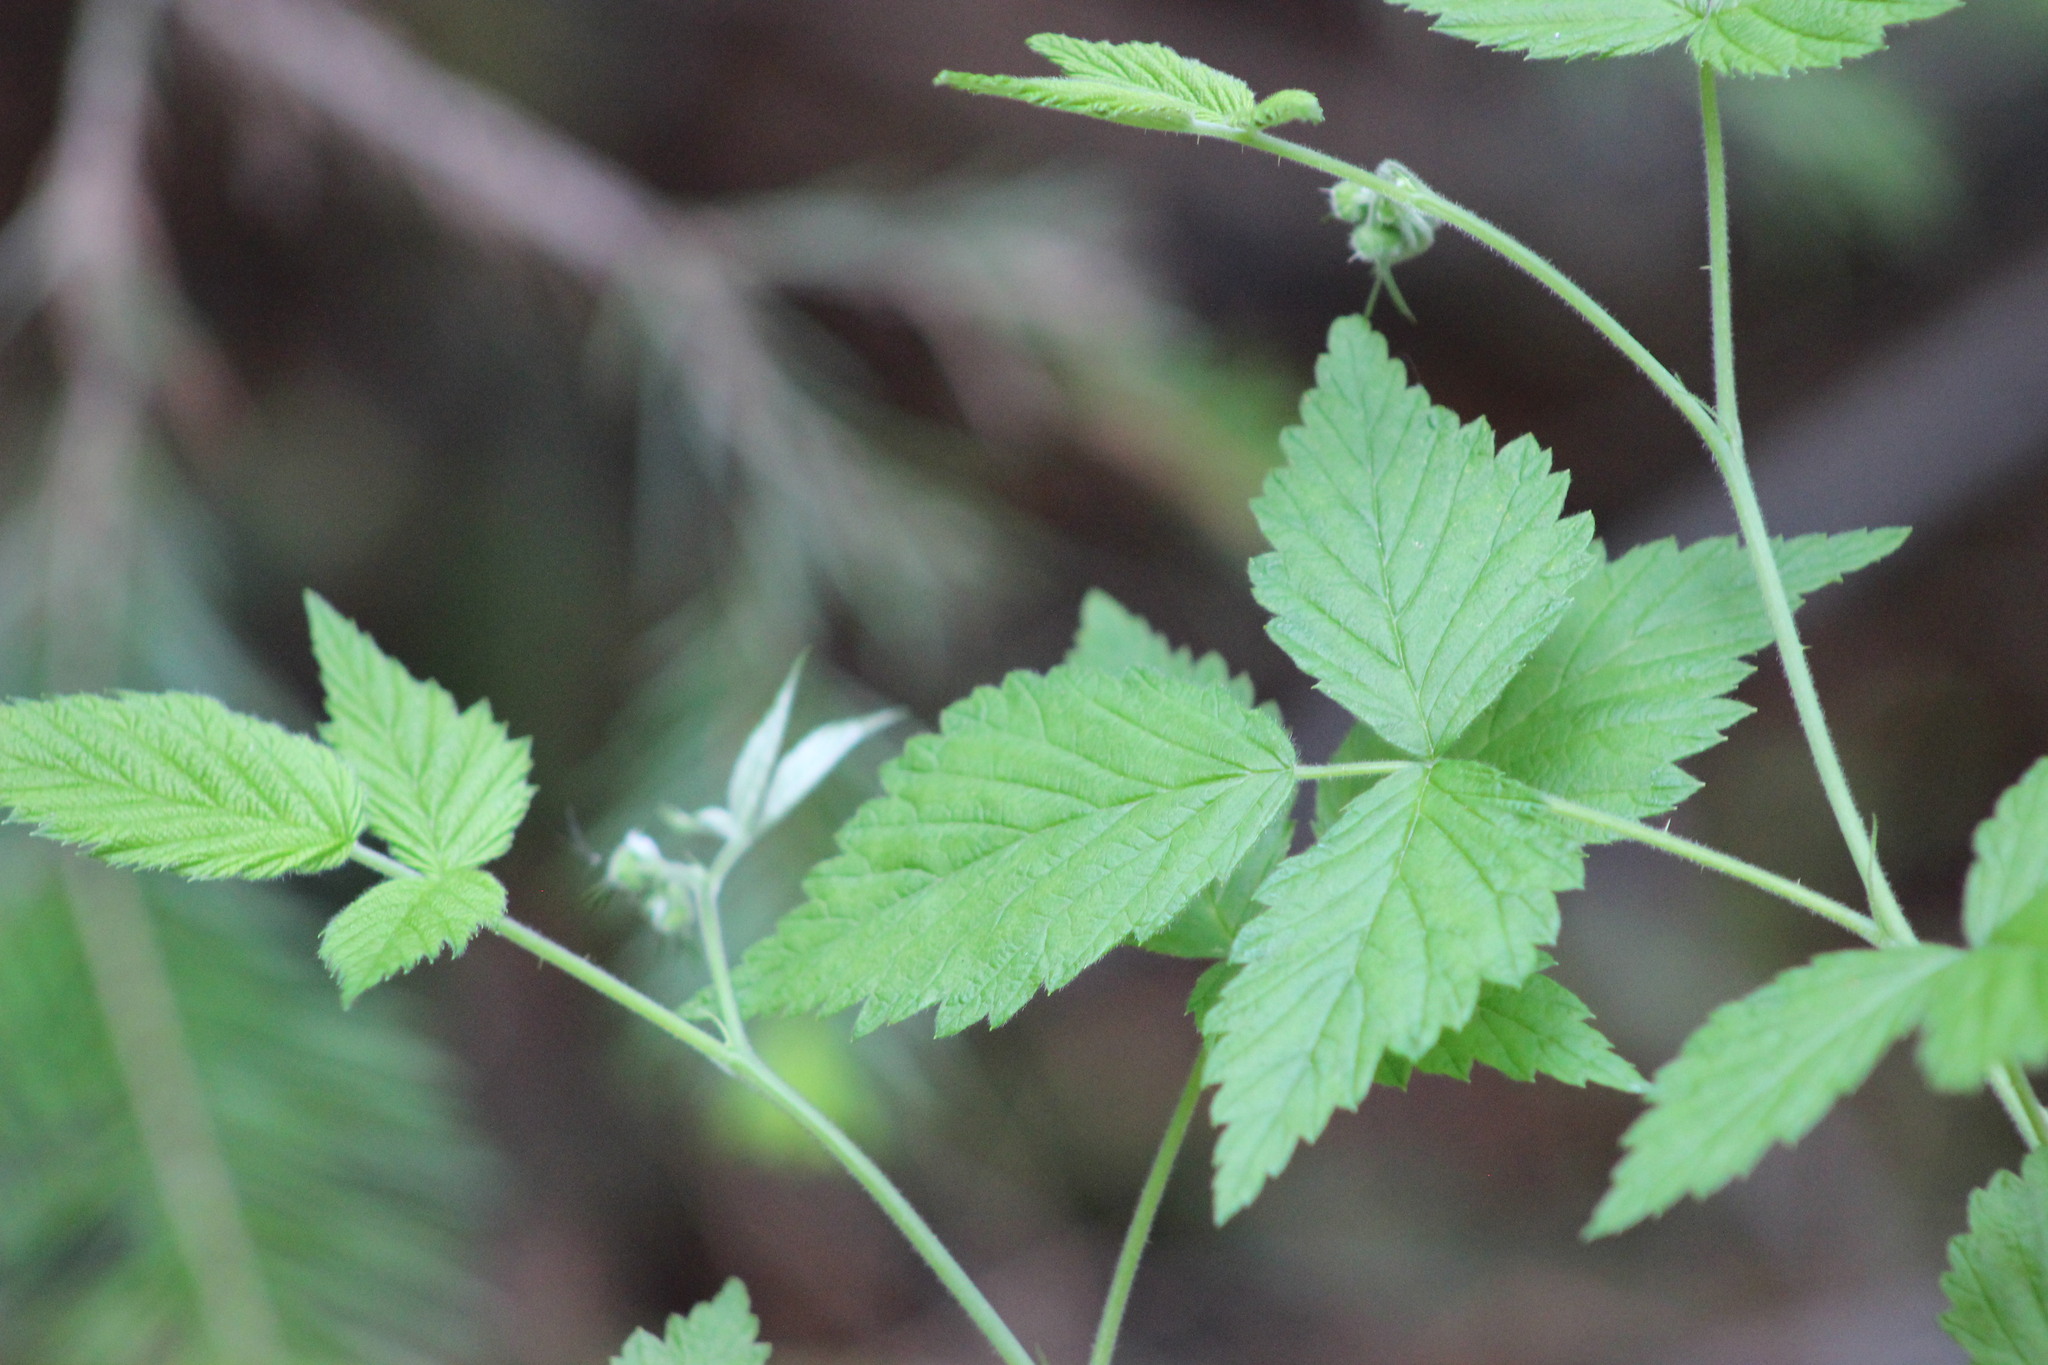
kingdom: Plantae
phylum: Tracheophyta
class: Magnoliopsida
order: Rosales
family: Rosaceae
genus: Rubus
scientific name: Rubus idaeus
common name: Raspberry
